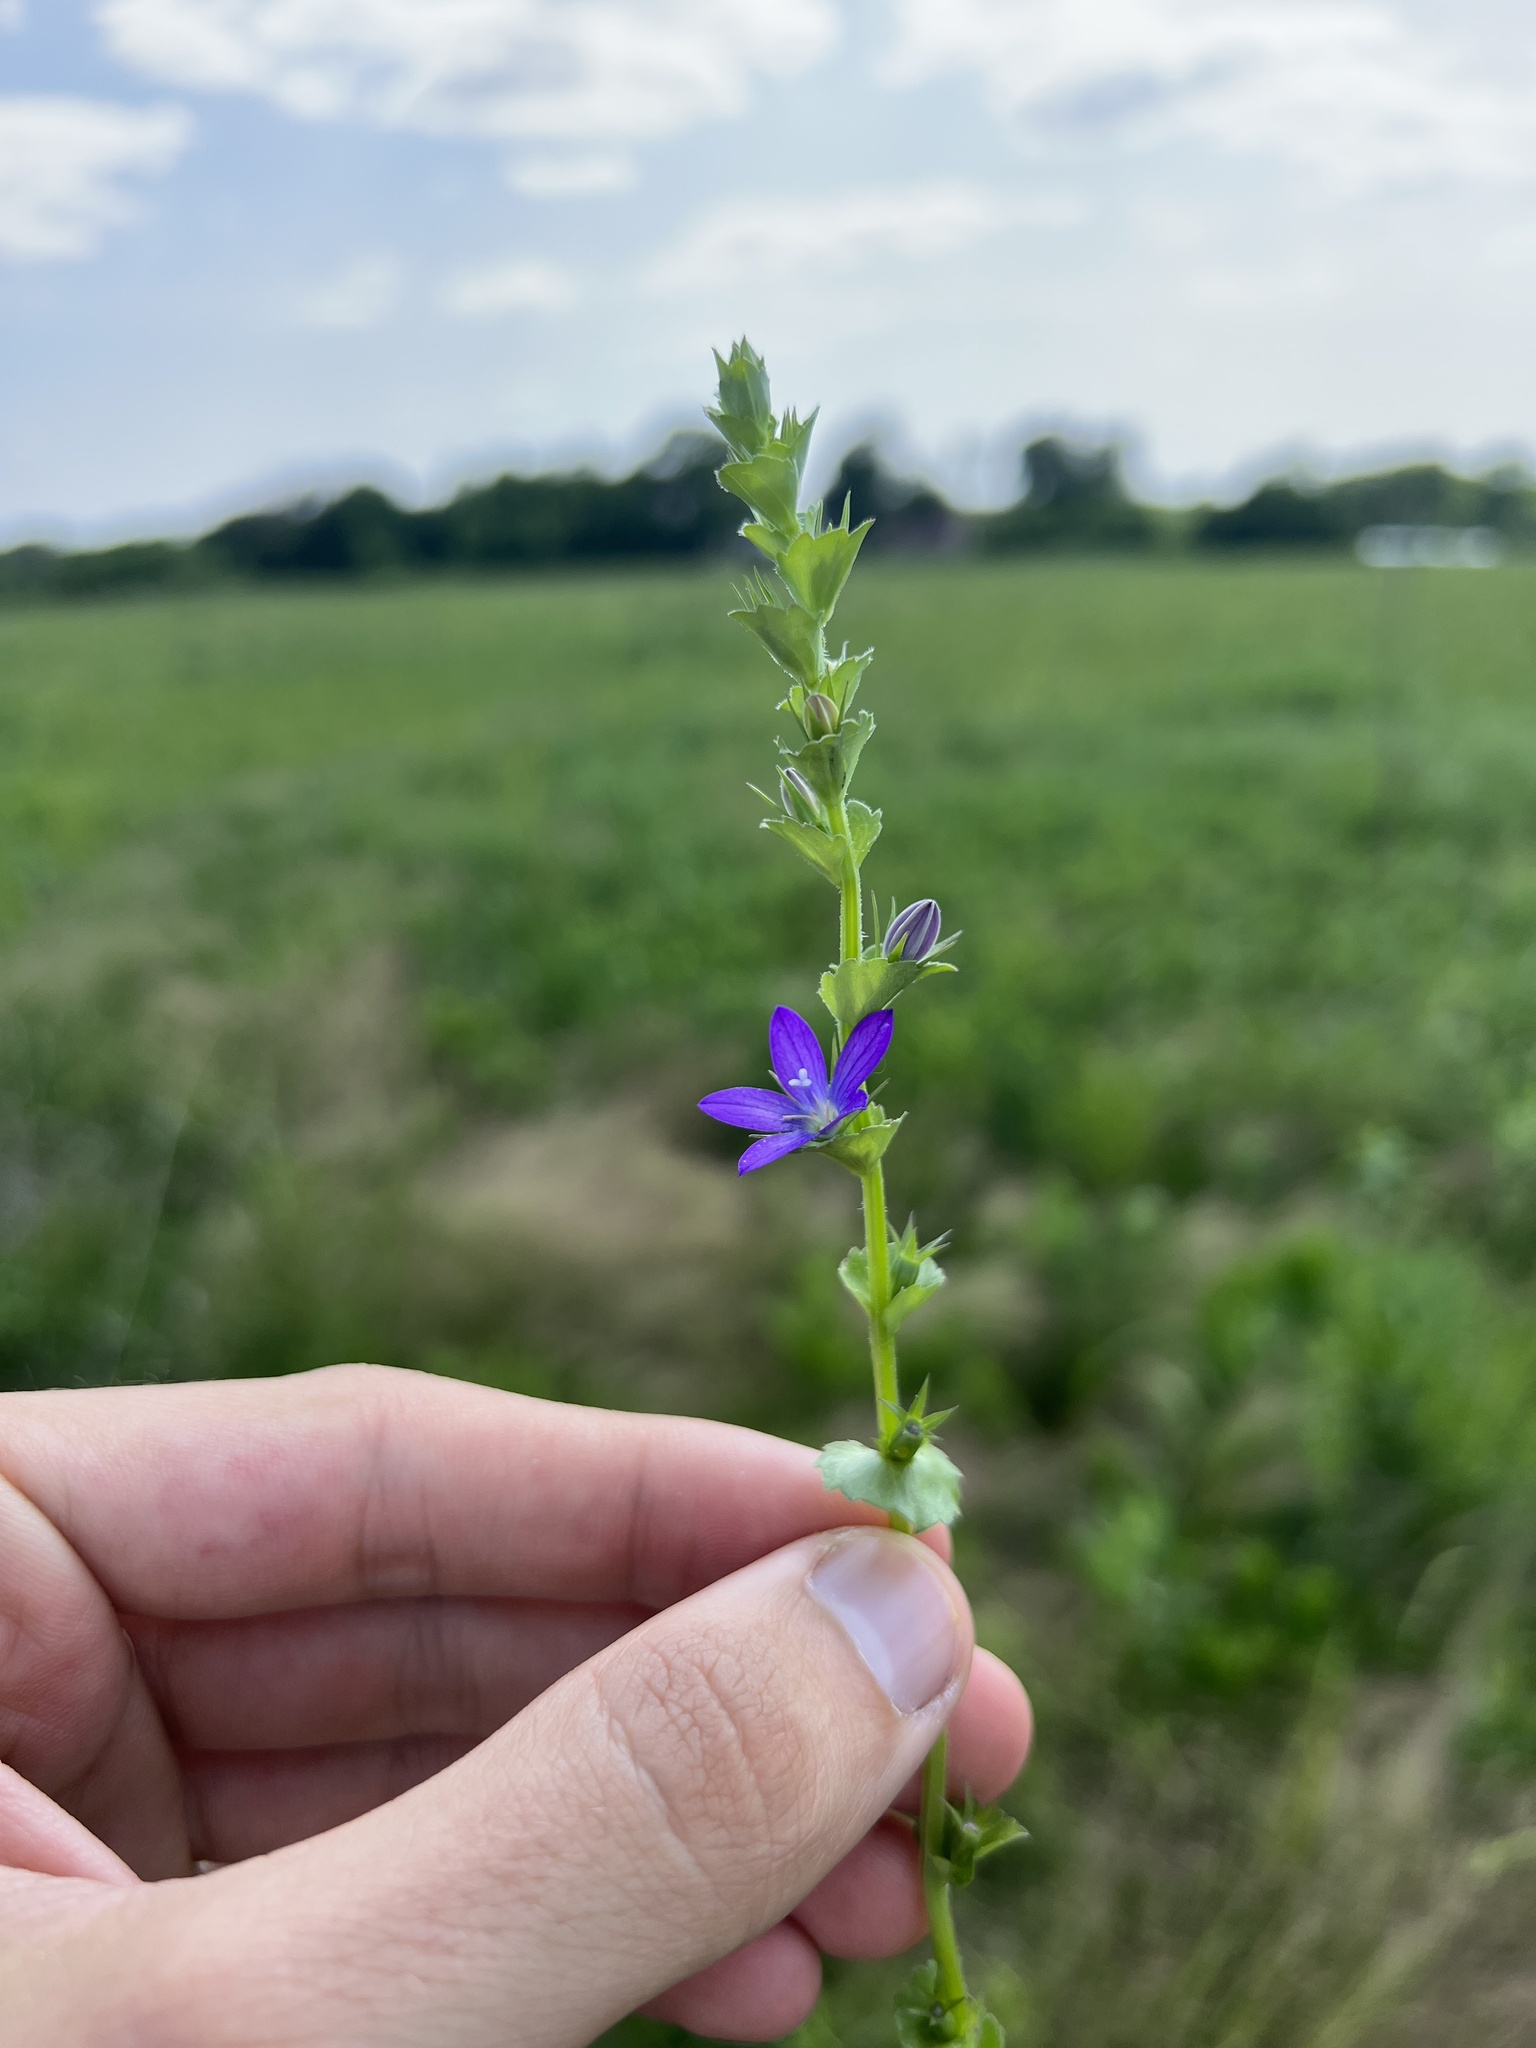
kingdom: Plantae
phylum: Tracheophyta
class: Magnoliopsida
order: Asterales
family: Campanulaceae
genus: Triodanis
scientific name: Triodanis biflora
